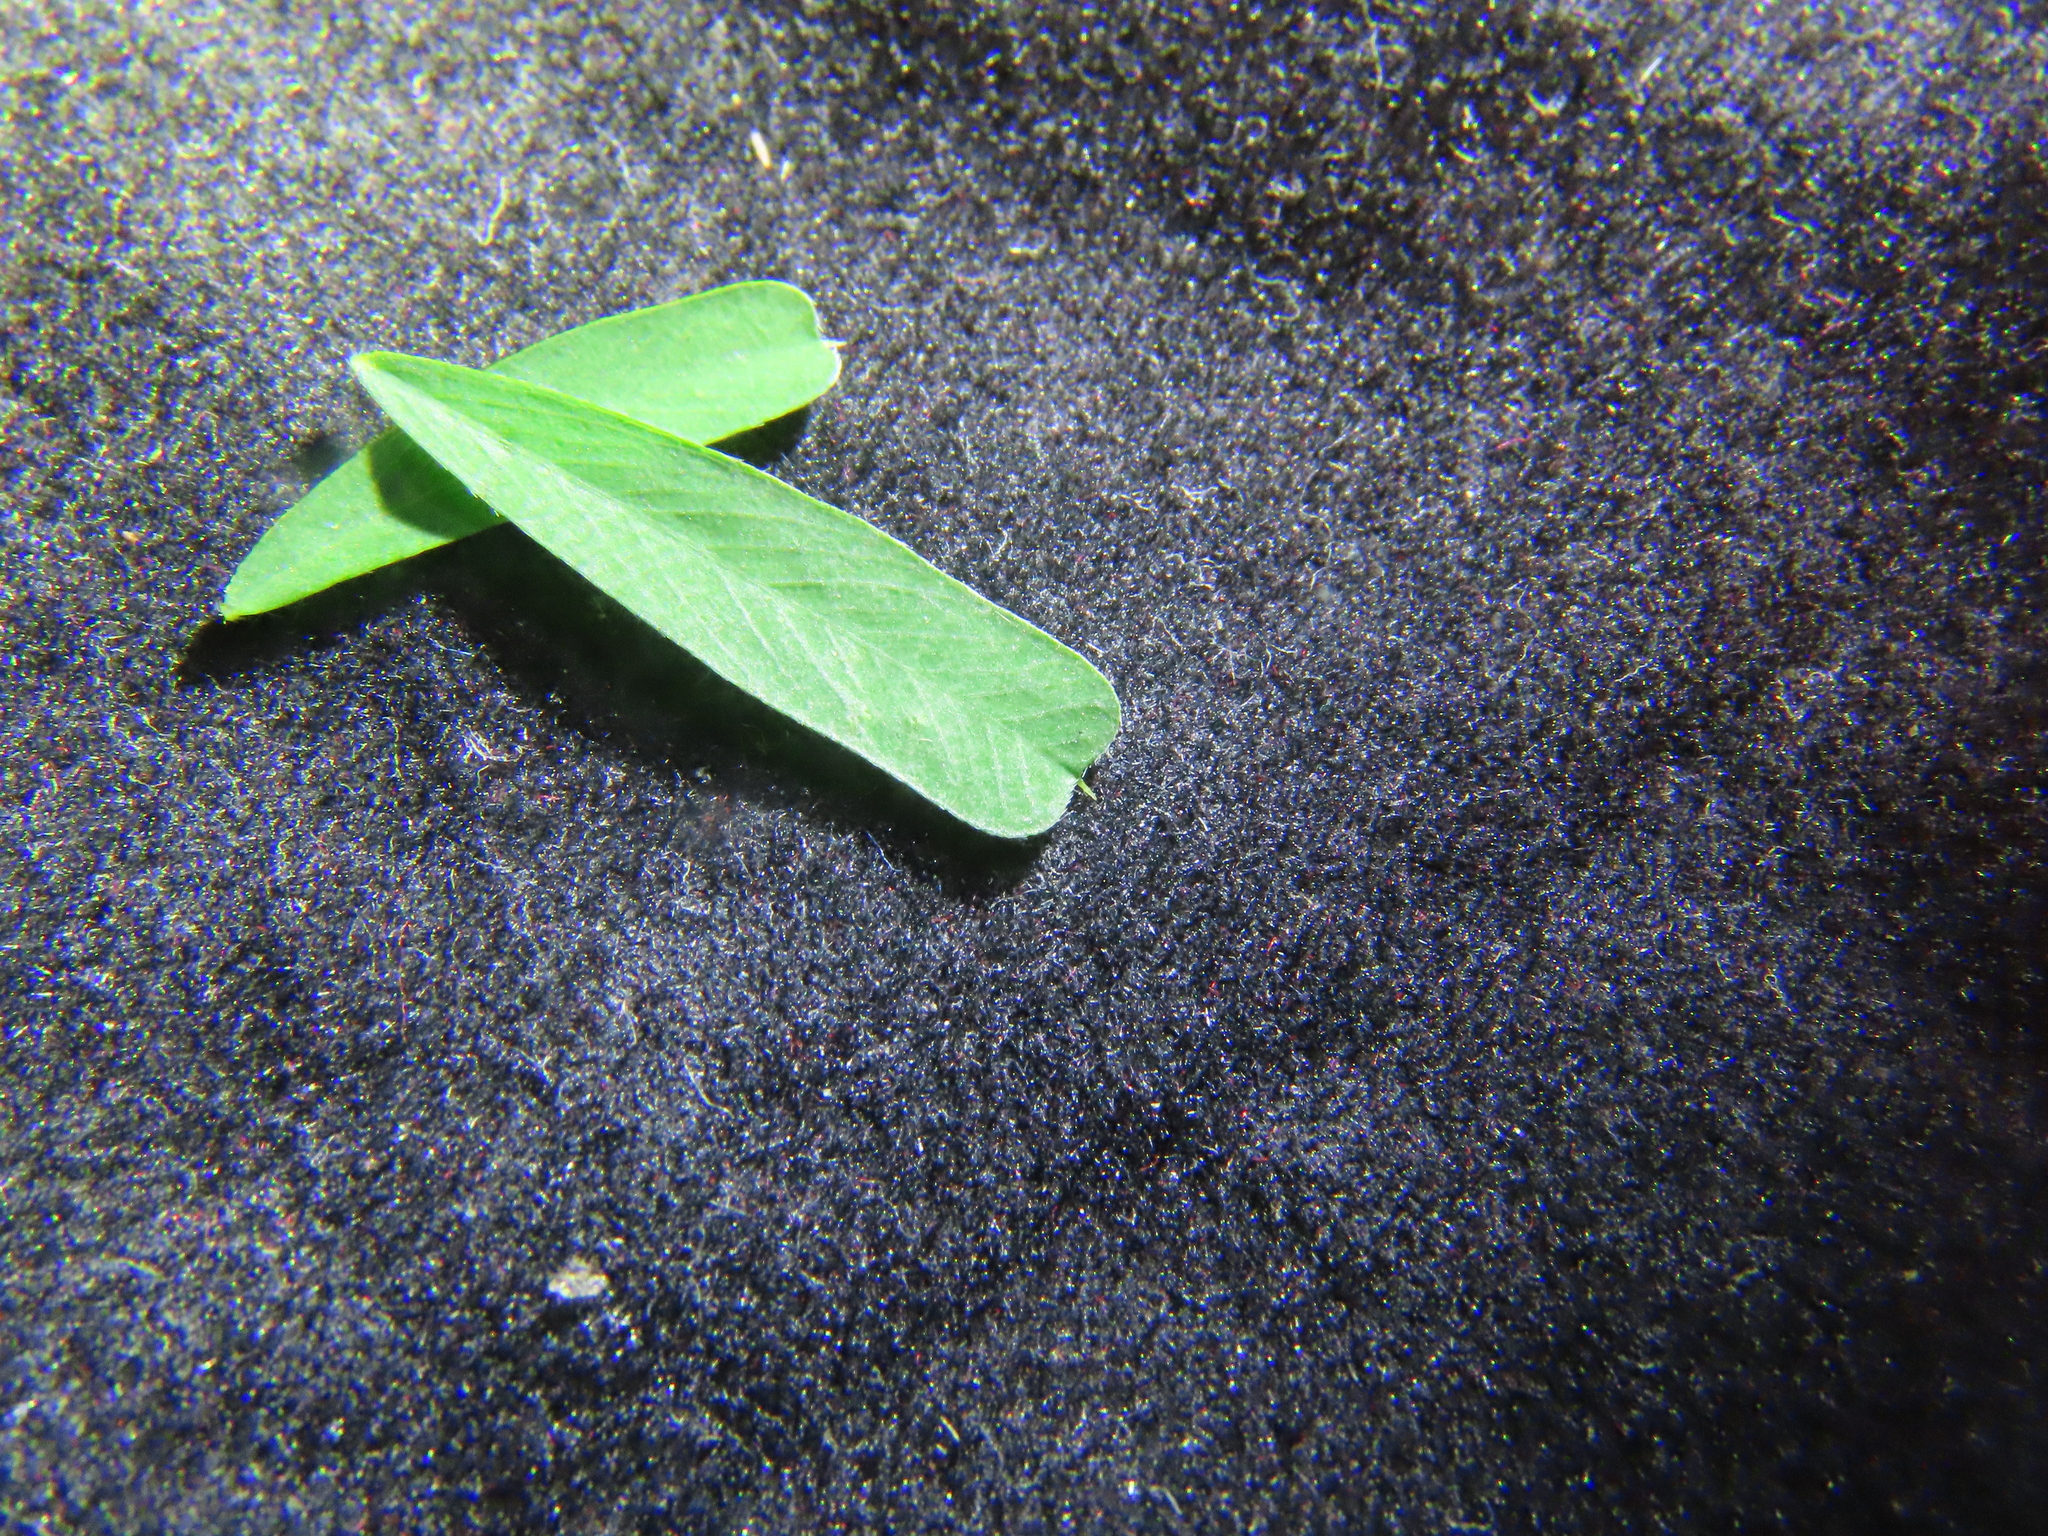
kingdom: Plantae
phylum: Tracheophyta
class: Magnoliopsida
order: Fabales
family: Fabaceae
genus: Lespedeza
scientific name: Lespedeza cuneata
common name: Chinese bush-clover
